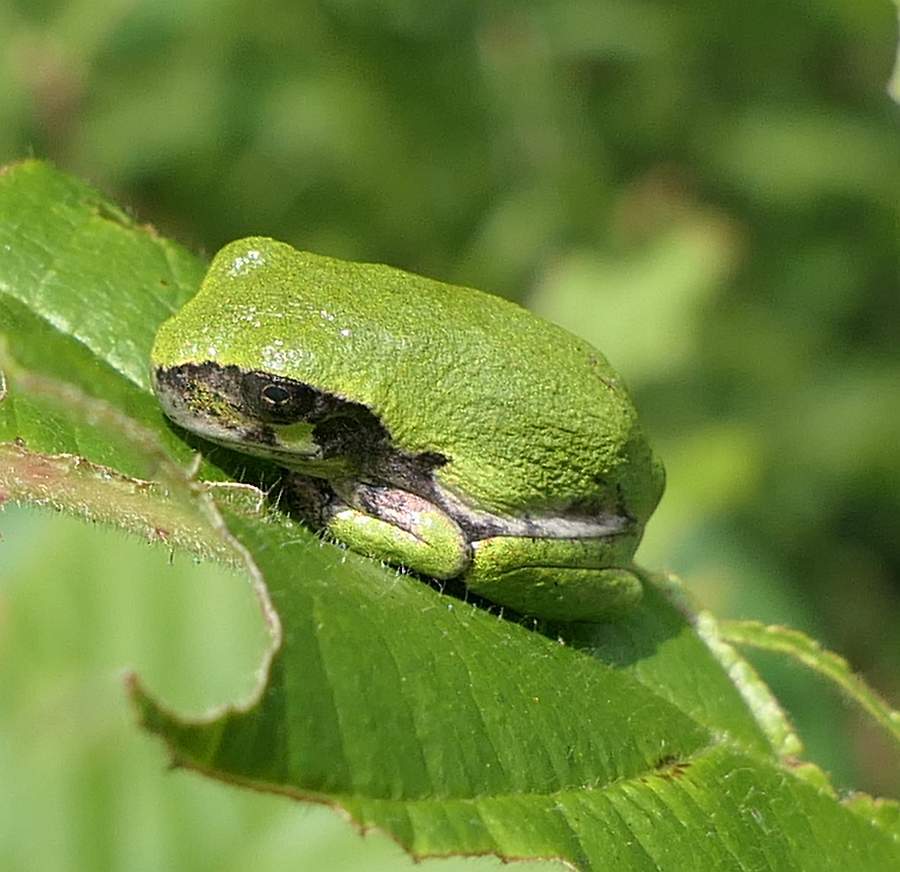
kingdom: Animalia
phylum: Chordata
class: Amphibia
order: Anura
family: Hylidae
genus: Dryophytes
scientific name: Dryophytes versicolor
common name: Gray treefrog
